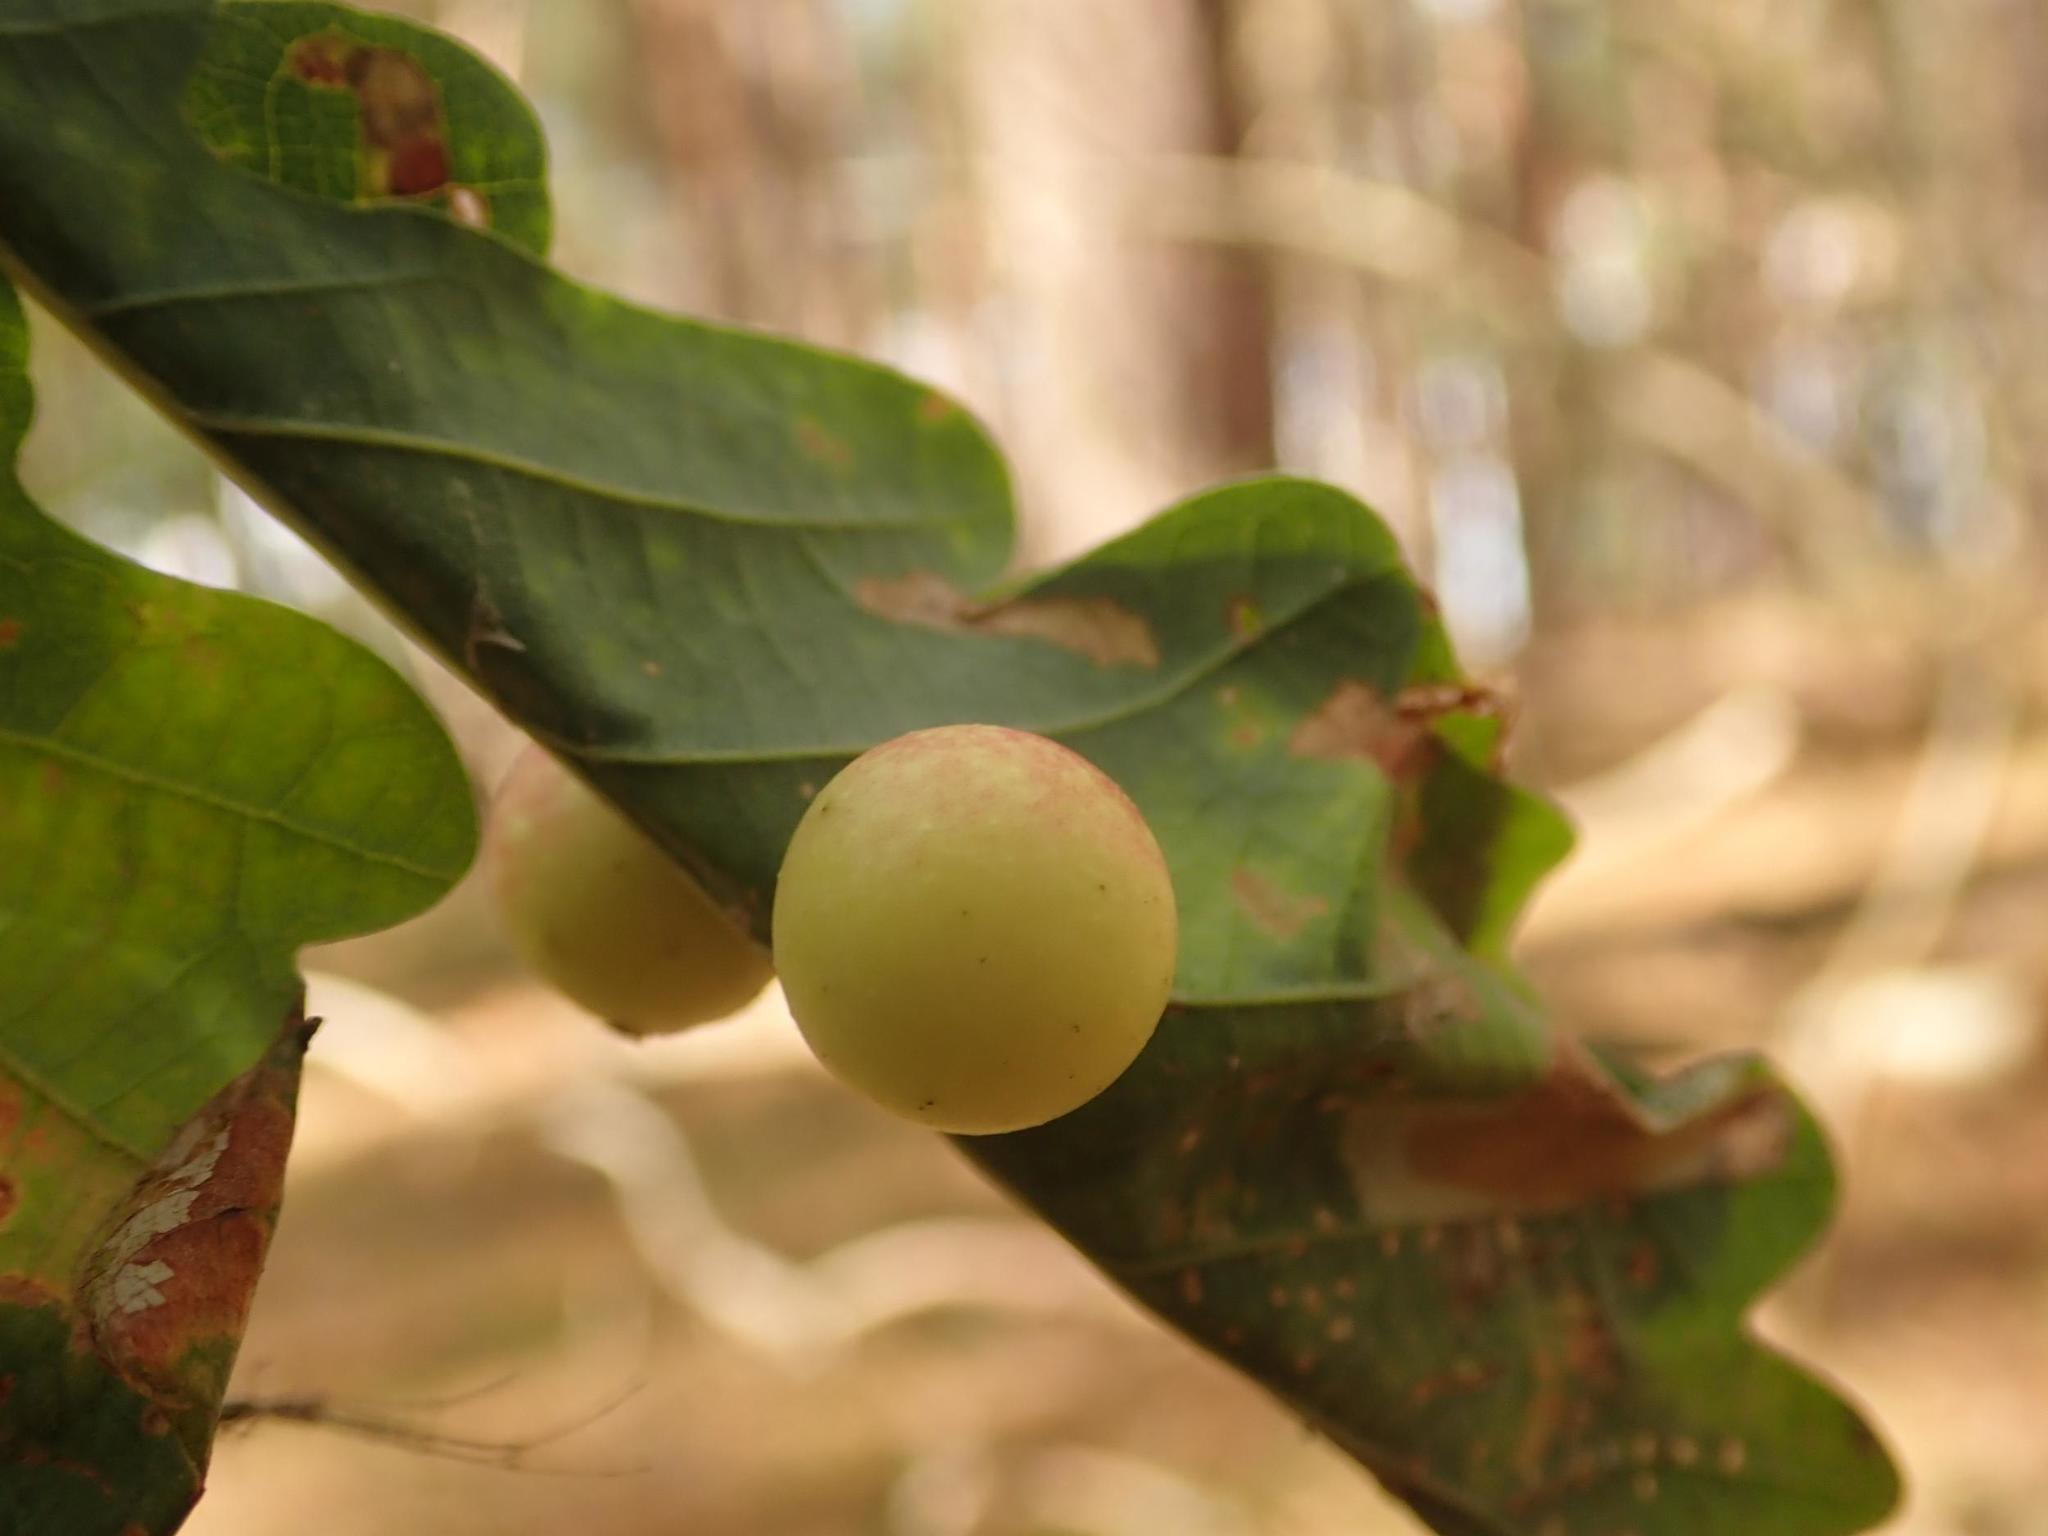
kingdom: Animalia
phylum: Arthropoda
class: Insecta
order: Hymenoptera
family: Cynipidae
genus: Cynips
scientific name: Cynips quercusfolii
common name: Cherry gall
